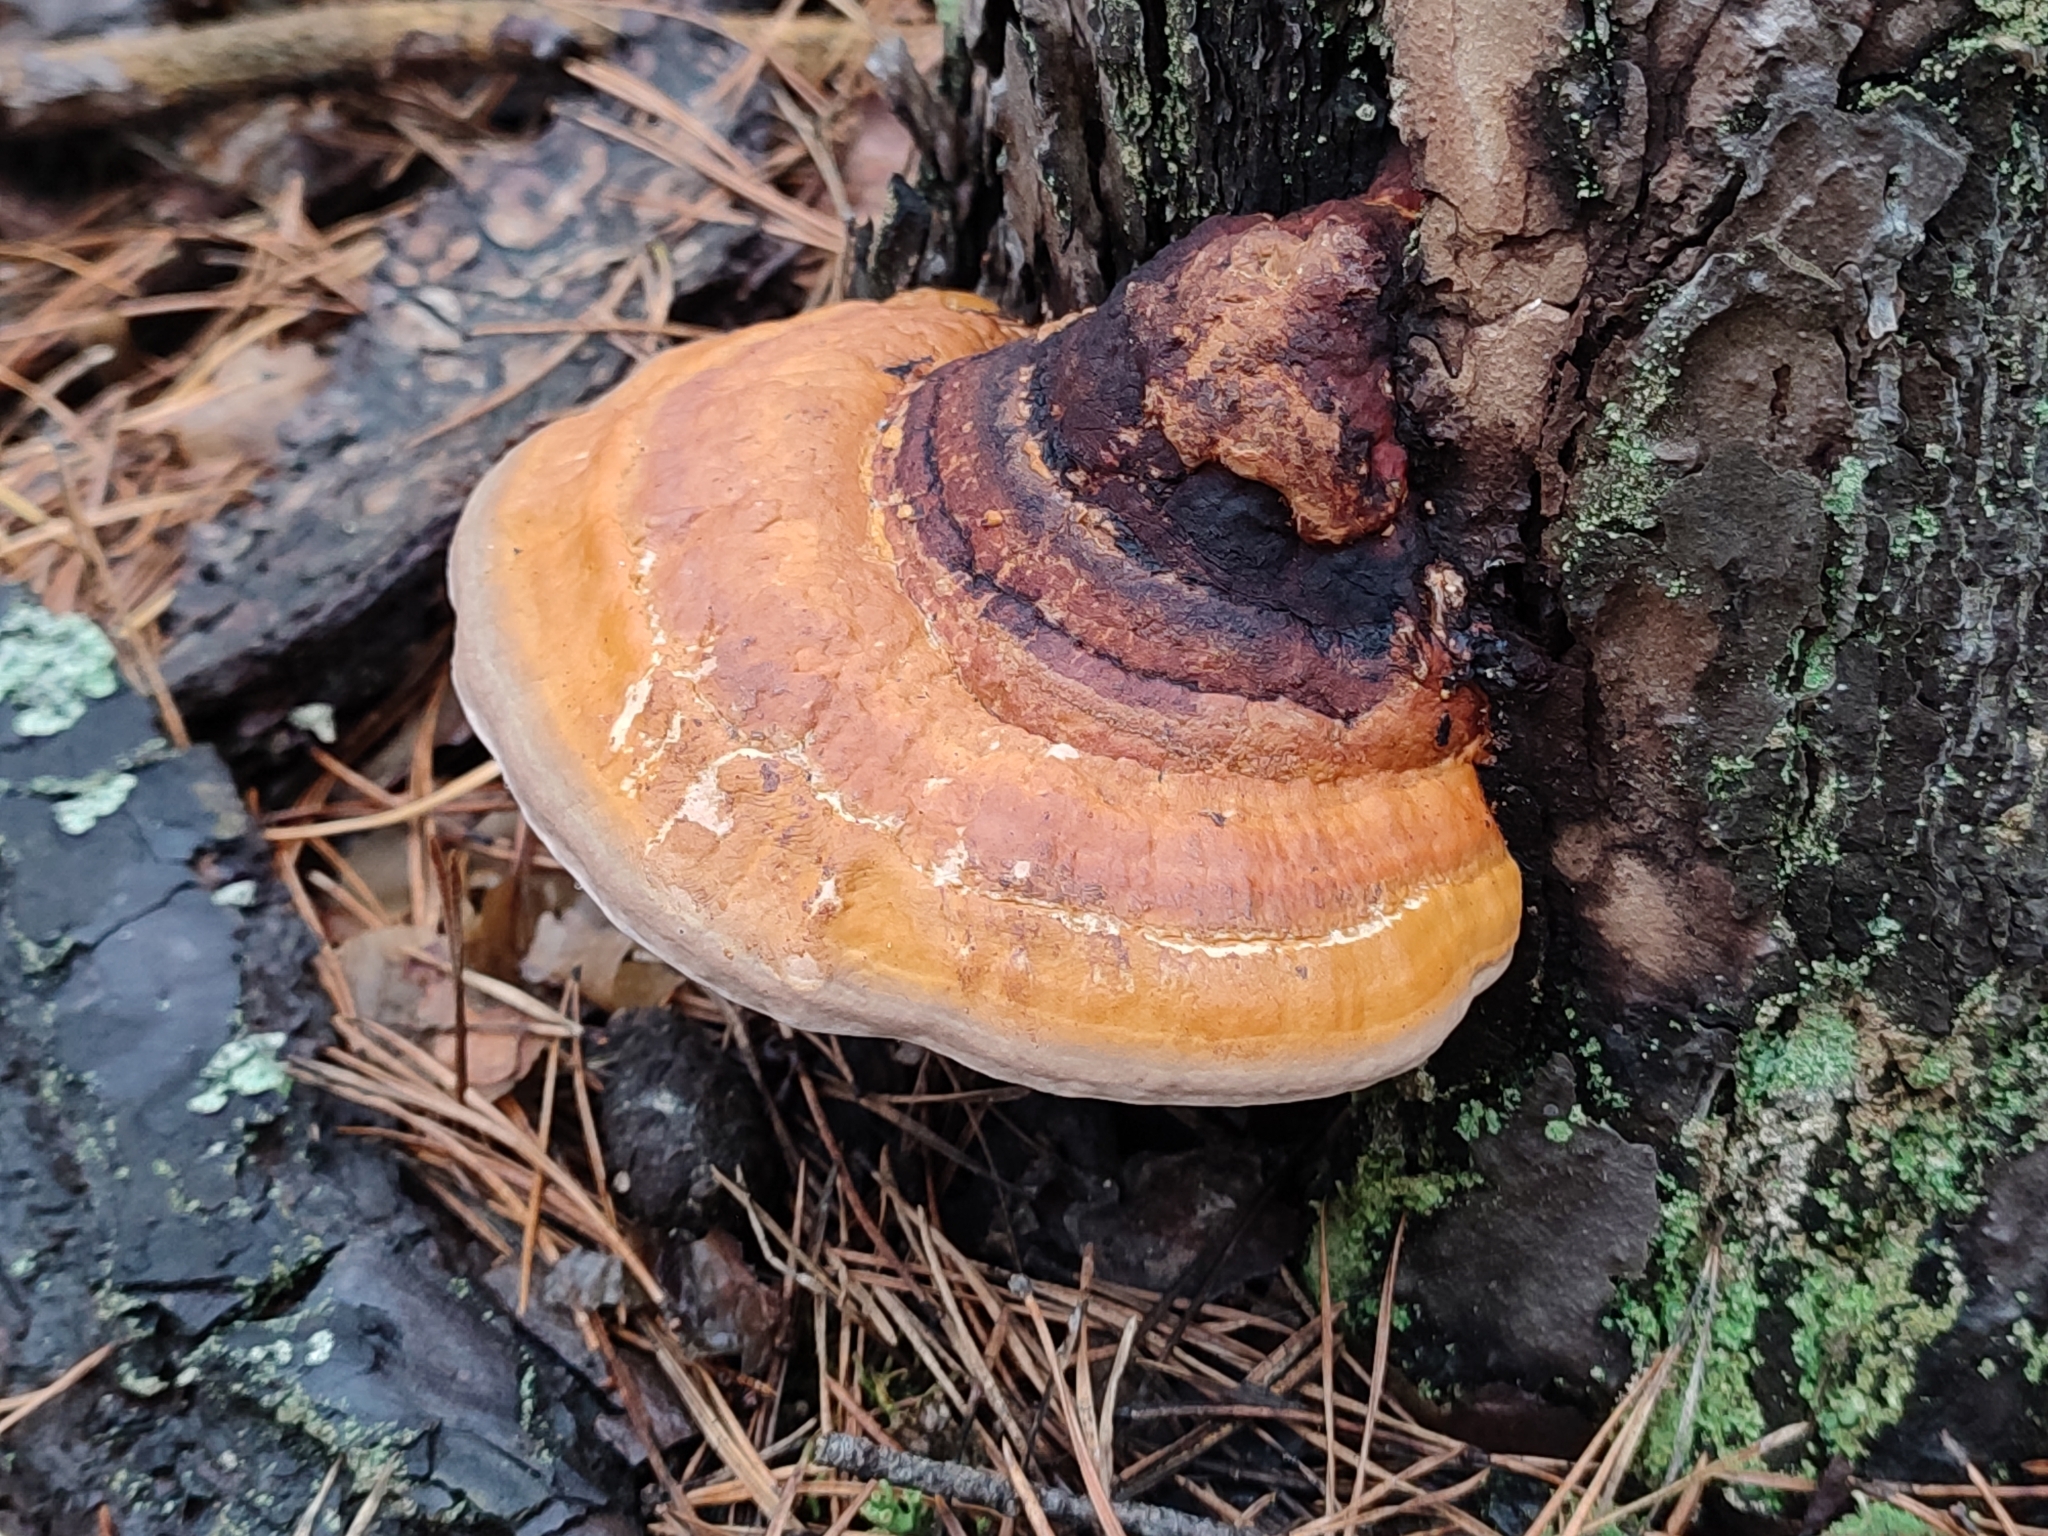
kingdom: Fungi
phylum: Basidiomycota
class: Agaricomycetes
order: Polyporales
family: Fomitopsidaceae
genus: Fomitopsis
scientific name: Fomitopsis pinicola
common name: Red-belted bracket
